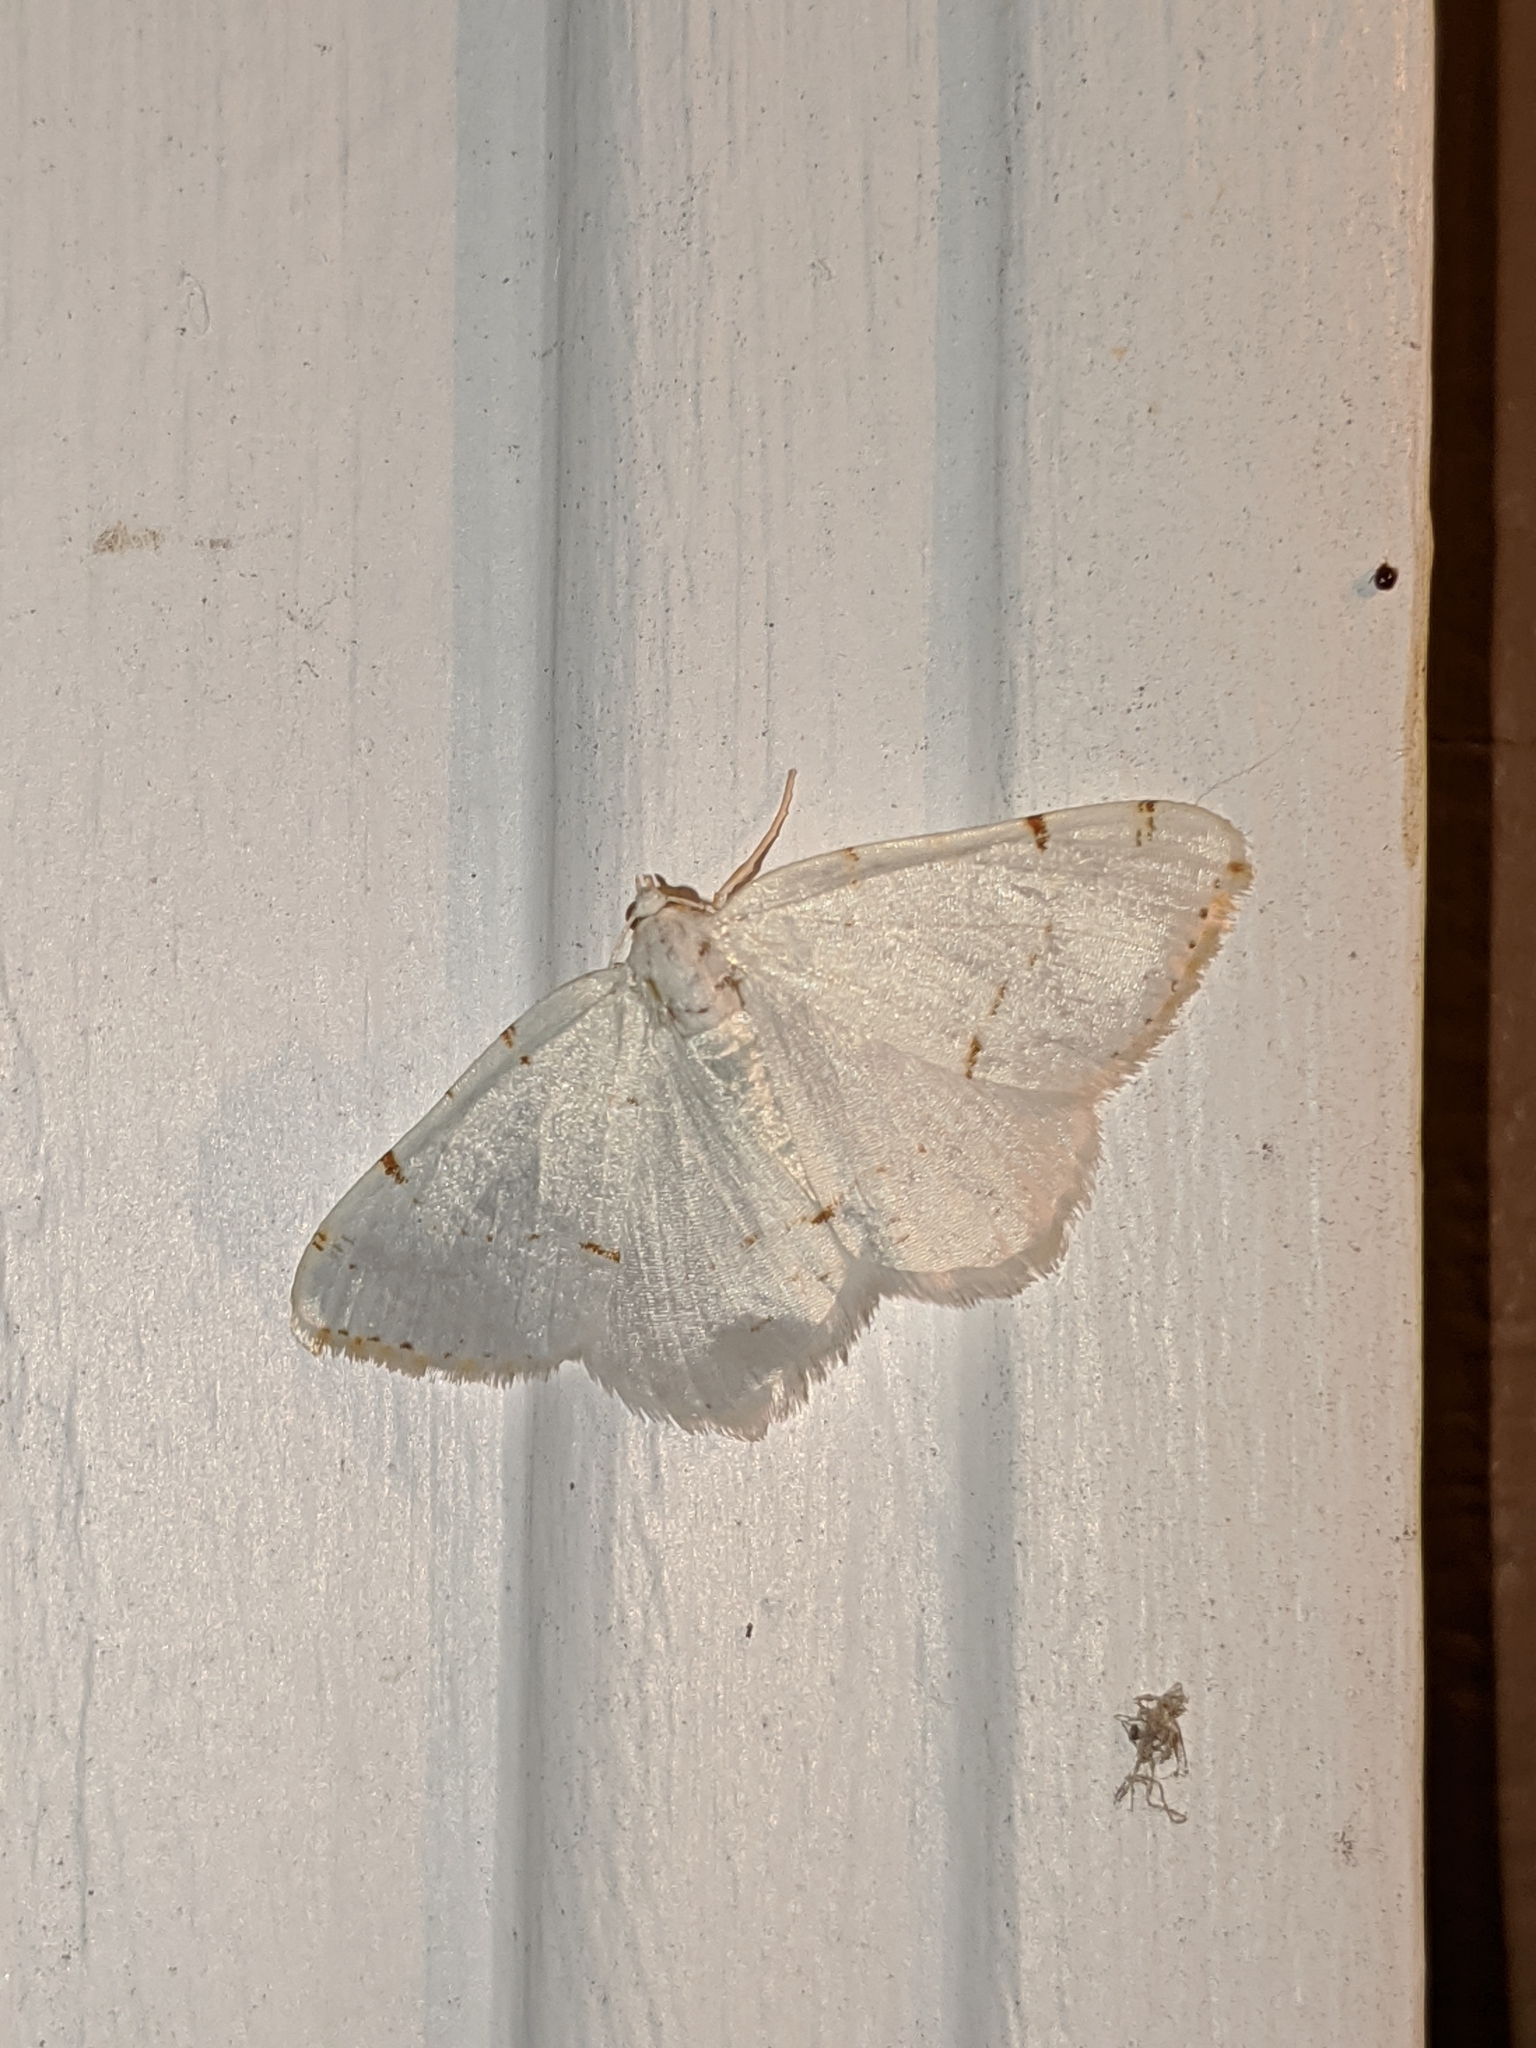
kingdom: Animalia
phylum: Arthropoda
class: Insecta
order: Lepidoptera
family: Geometridae
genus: Macaria
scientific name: Macaria pustularia
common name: Lesser maple spanworm moth
